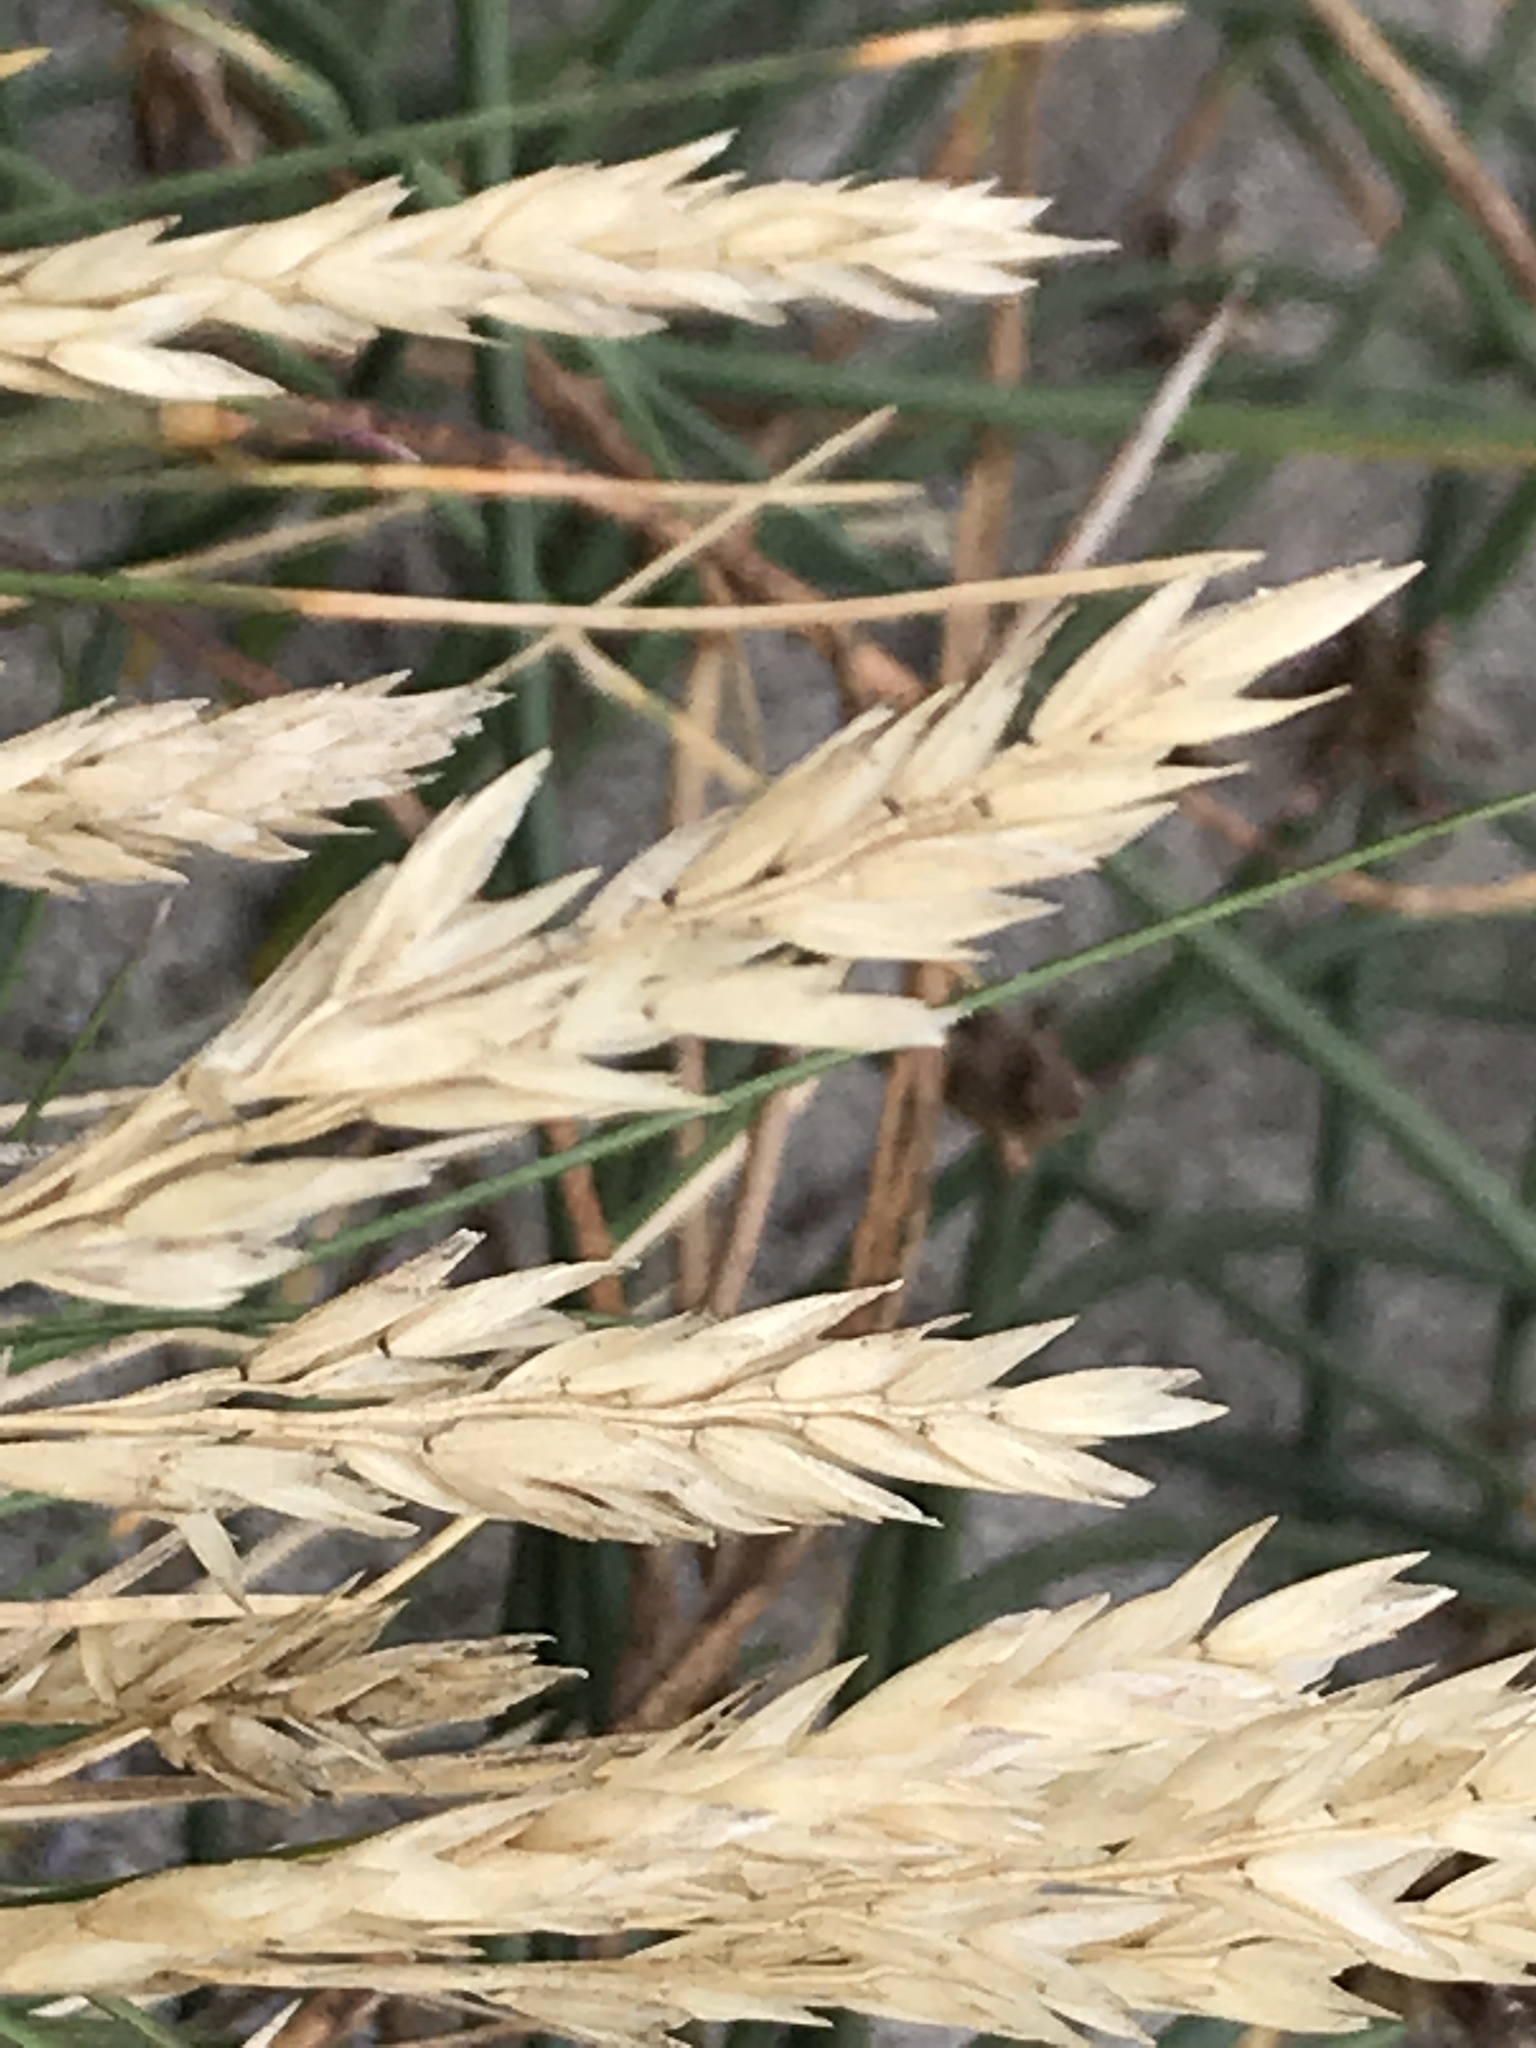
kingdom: Plantae
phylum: Tracheophyta
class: Liliopsida
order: Poales
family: Poaceae
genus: Poa
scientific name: Poa macrantha
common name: Dune bluegrass
